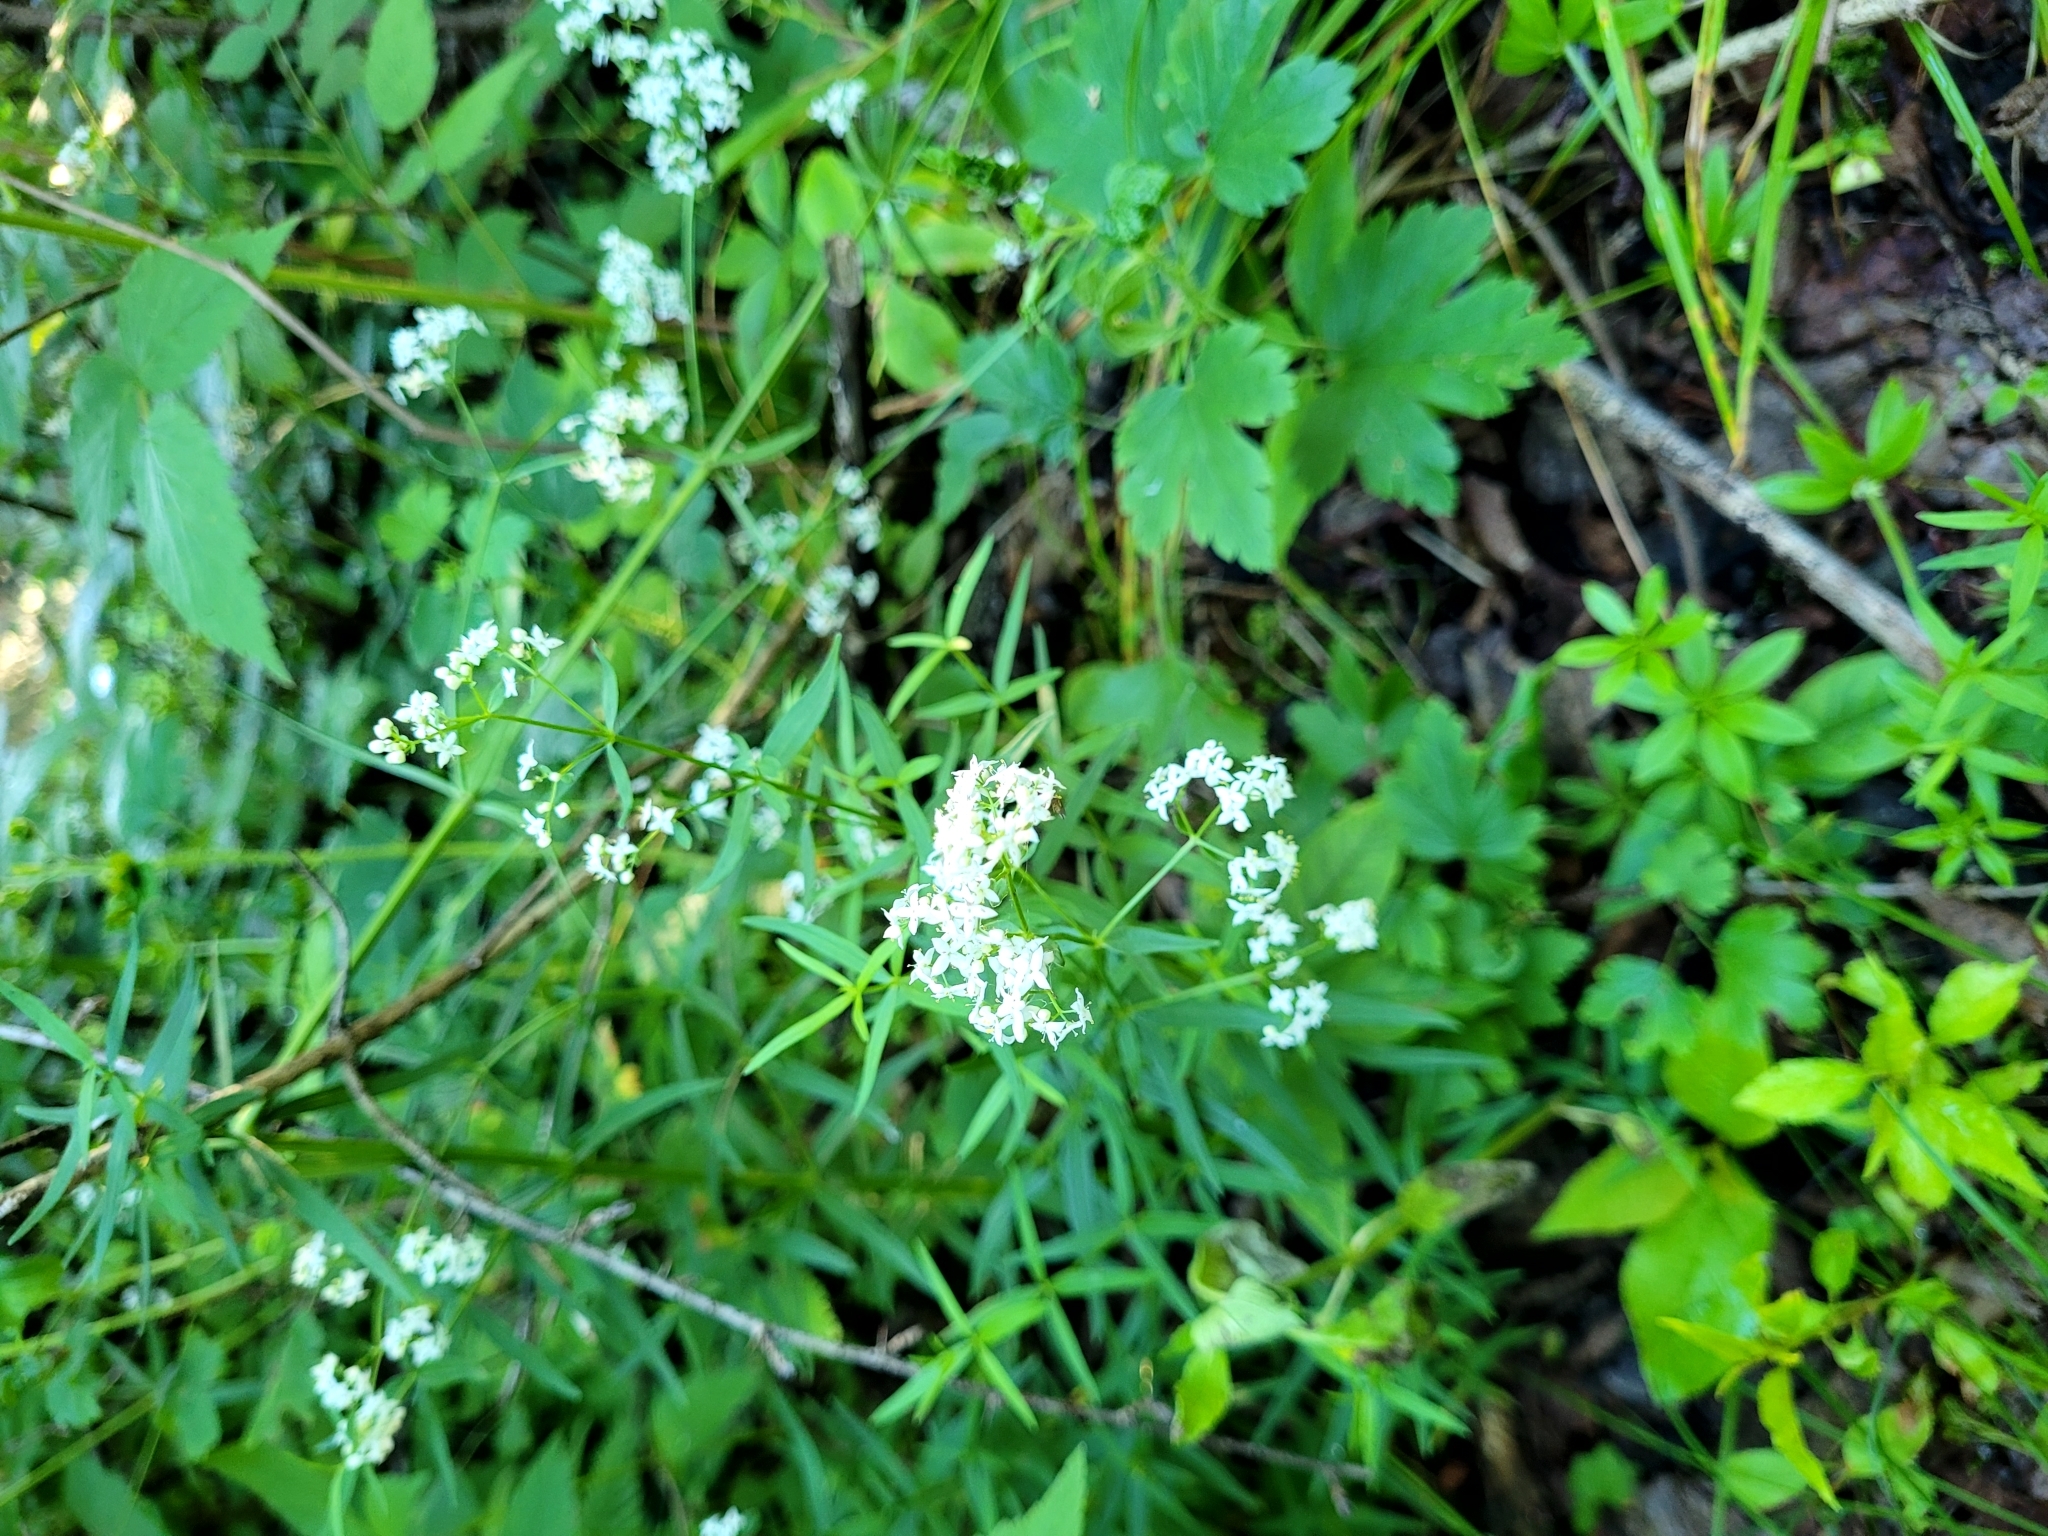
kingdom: Plantae
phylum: Tracheophyta
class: Magnoliopsida
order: Gentianales
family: Rubiaceae
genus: Galium
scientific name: Galium boreale
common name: Northern bedstraw
